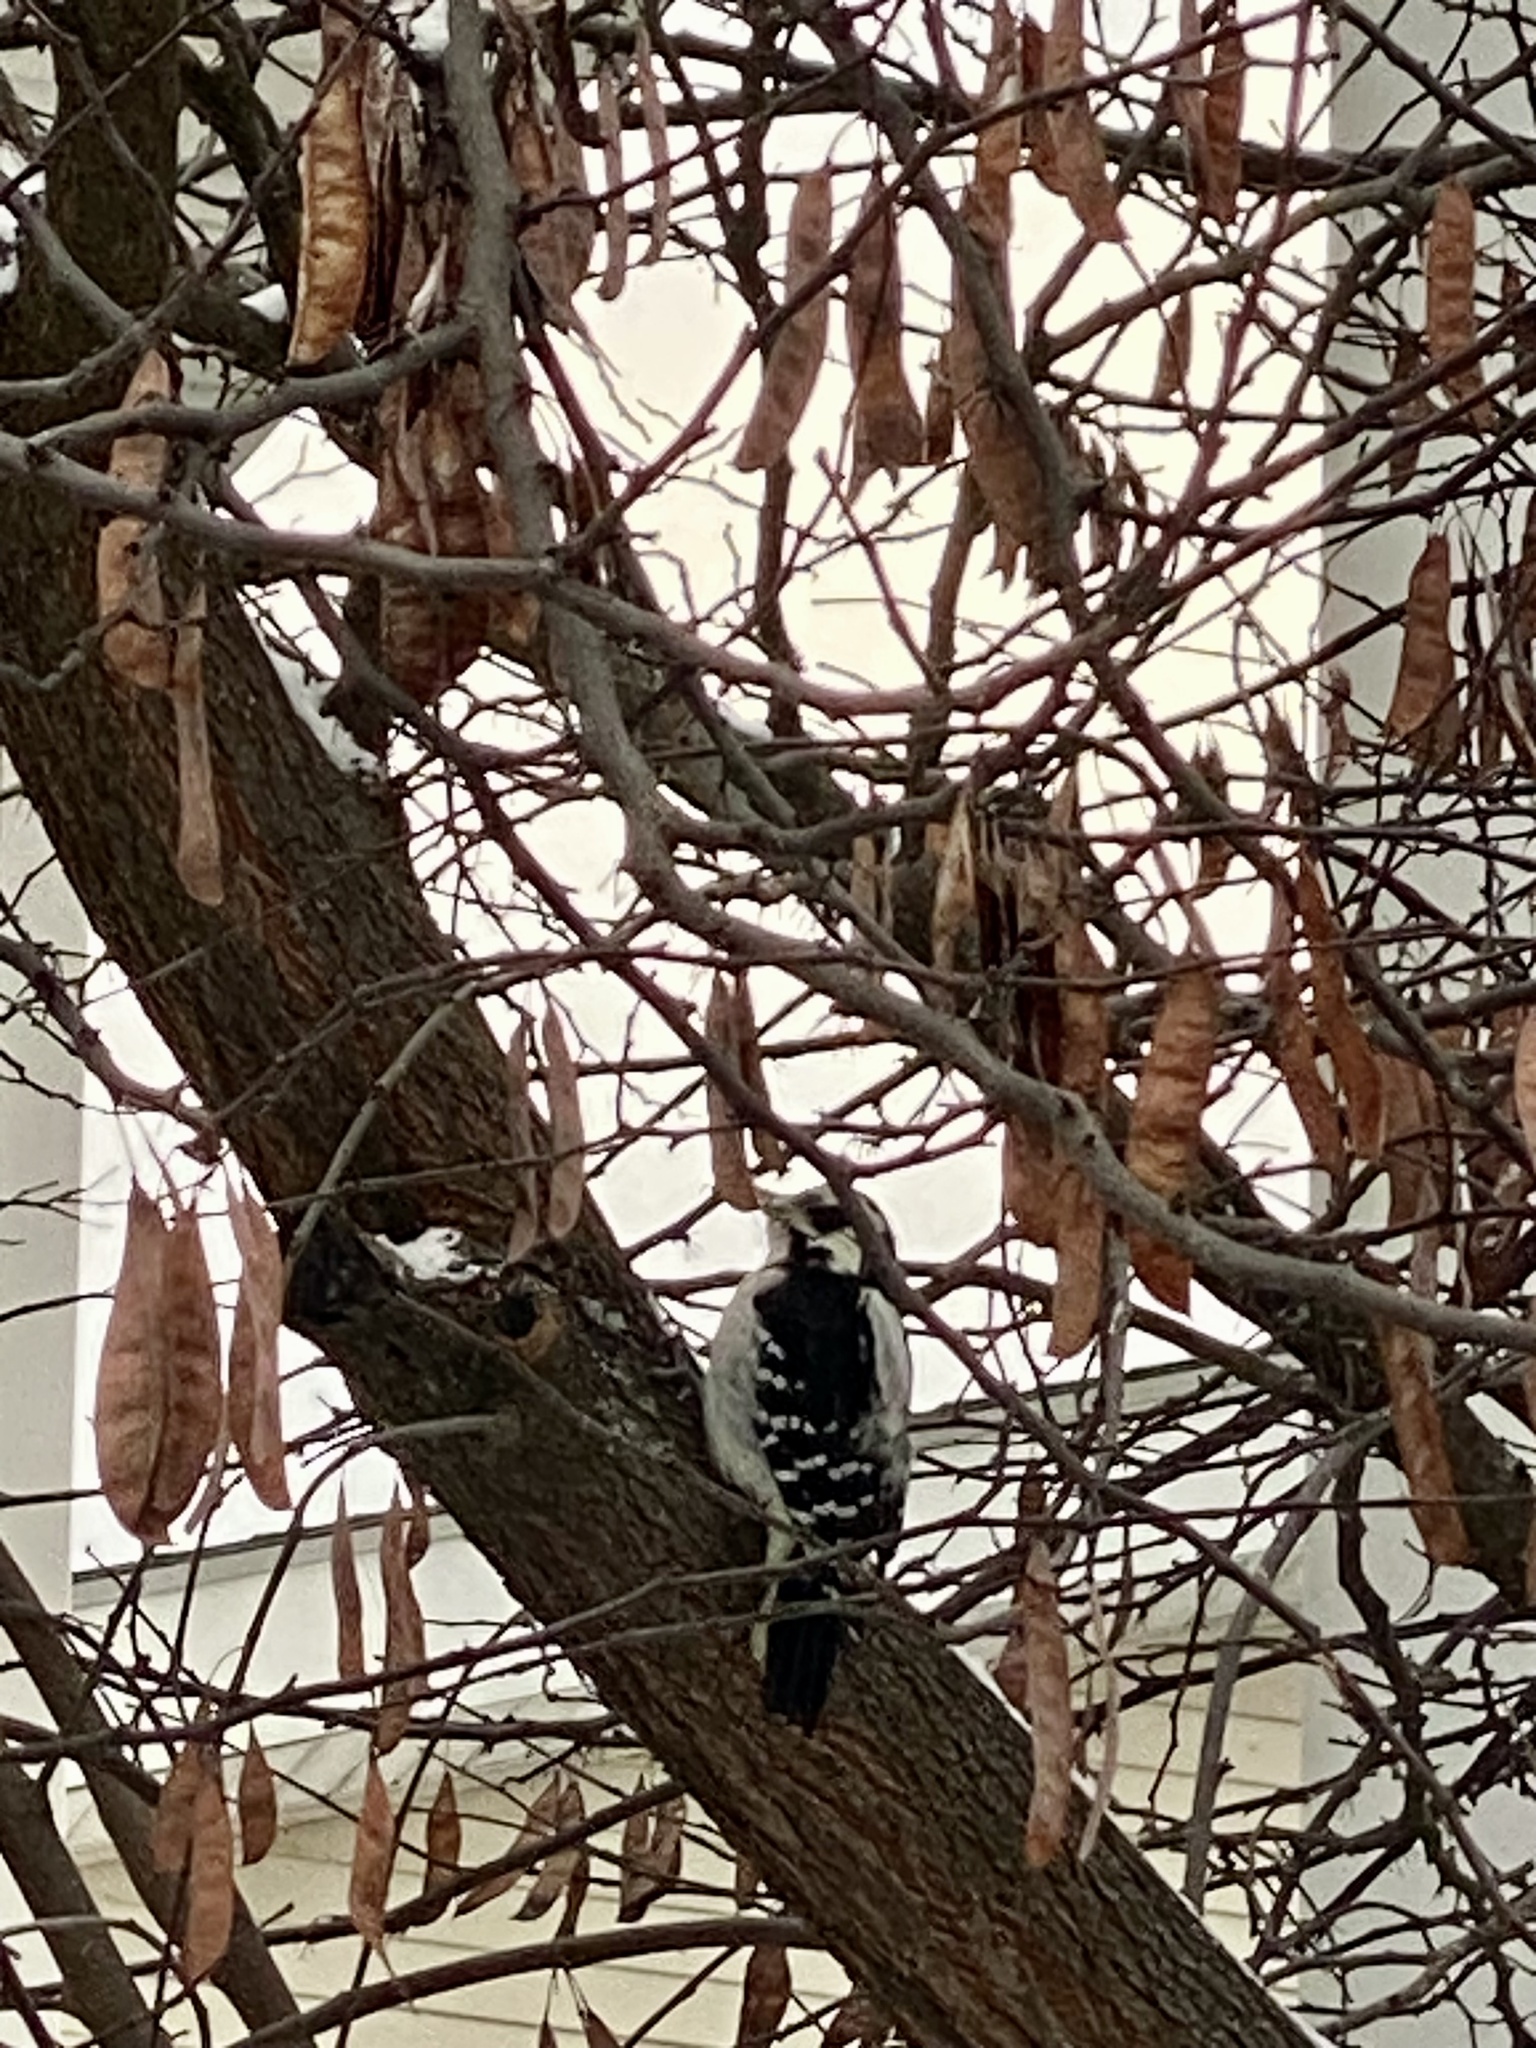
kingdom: Animalia
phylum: Chordata
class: Aves
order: Piciformes
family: Picidae
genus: Dryobates
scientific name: Dryobates pubescens
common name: Downy woodpecker
